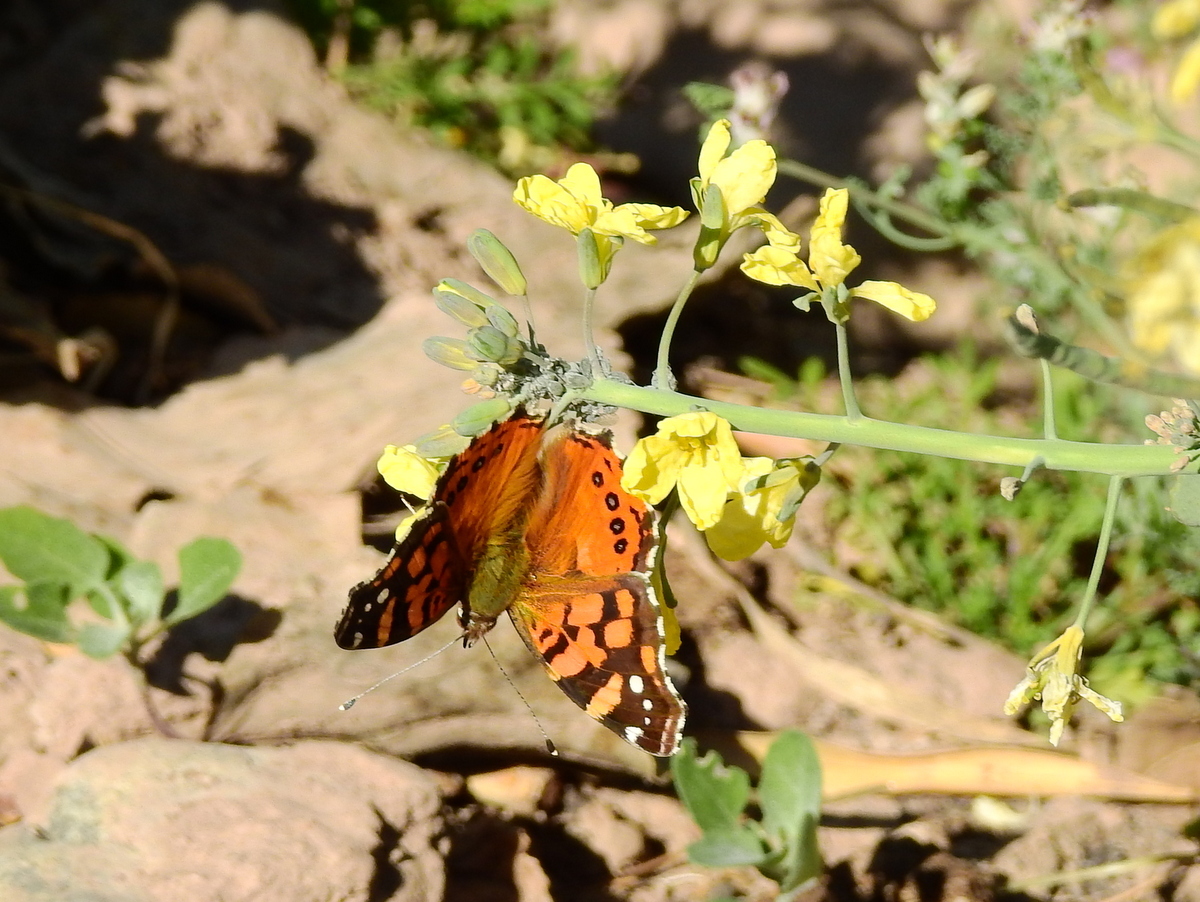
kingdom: Animalia
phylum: Arthropoda
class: Insecta
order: Lepidoptera
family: Nymphalidae
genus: Vanessa
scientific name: Vanessa carye
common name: Subtropical lady
